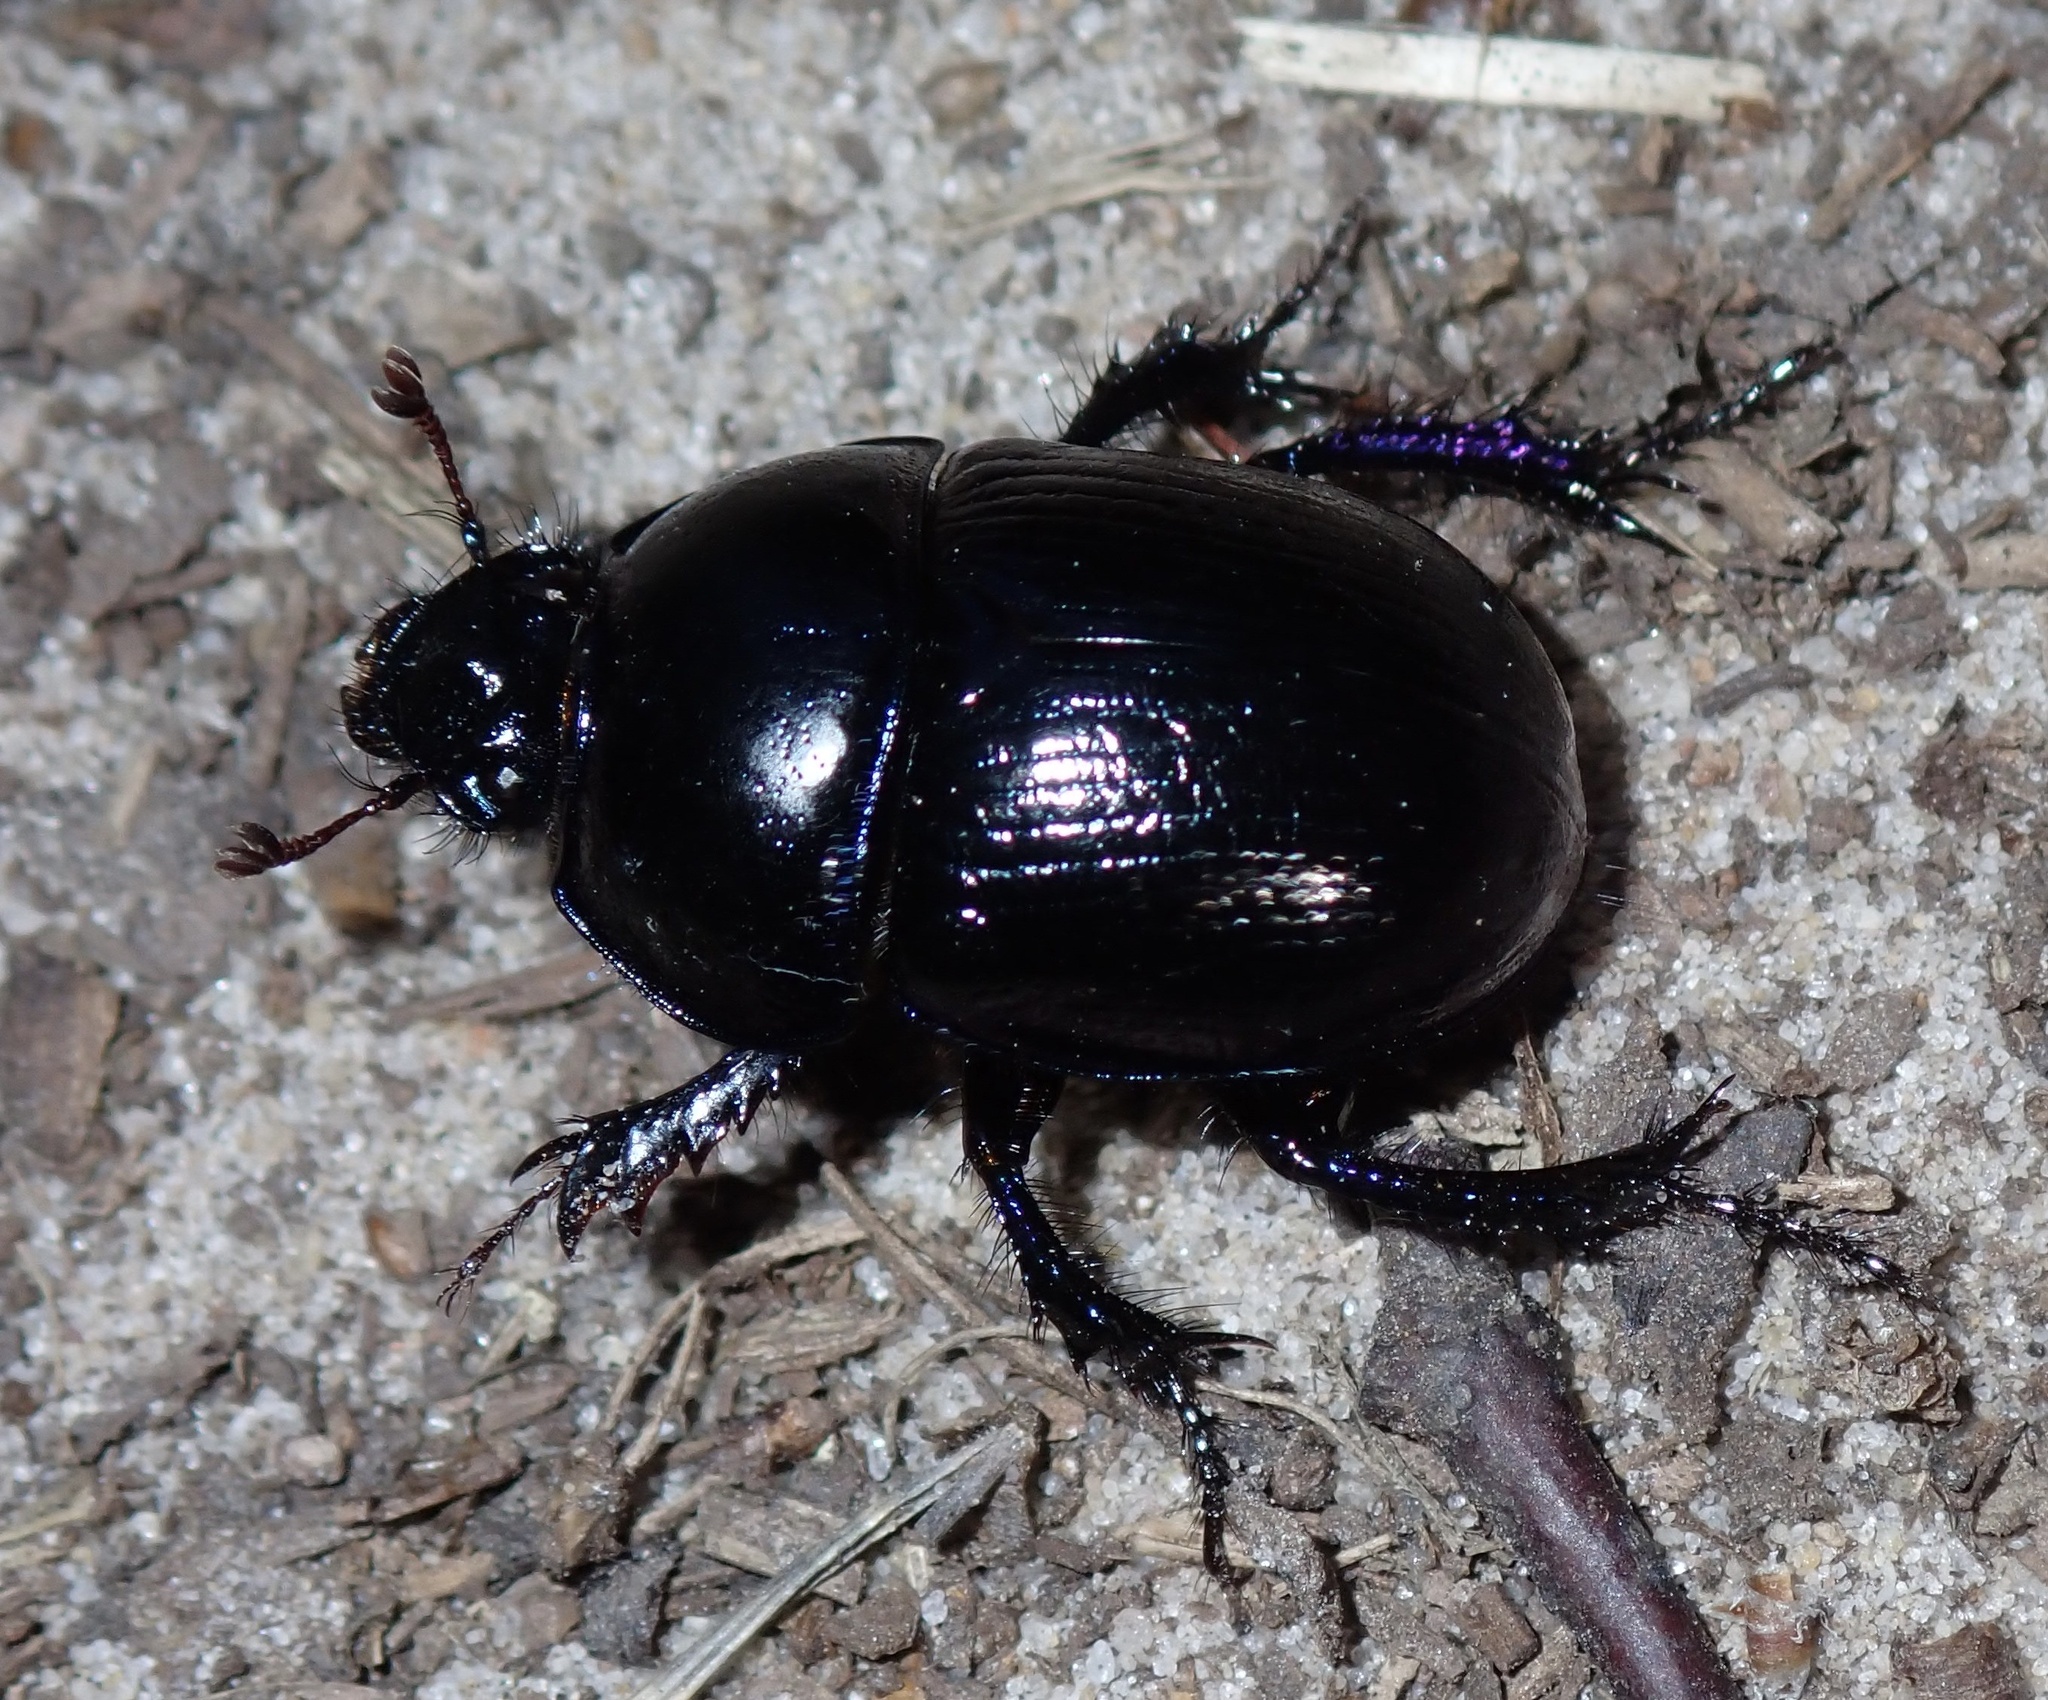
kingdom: Animalia
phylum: Arthropoda
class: Insecta
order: Coleoptera
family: Geotrupidae
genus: Anoplotrupes
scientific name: Anoplotrupes stercorosus
